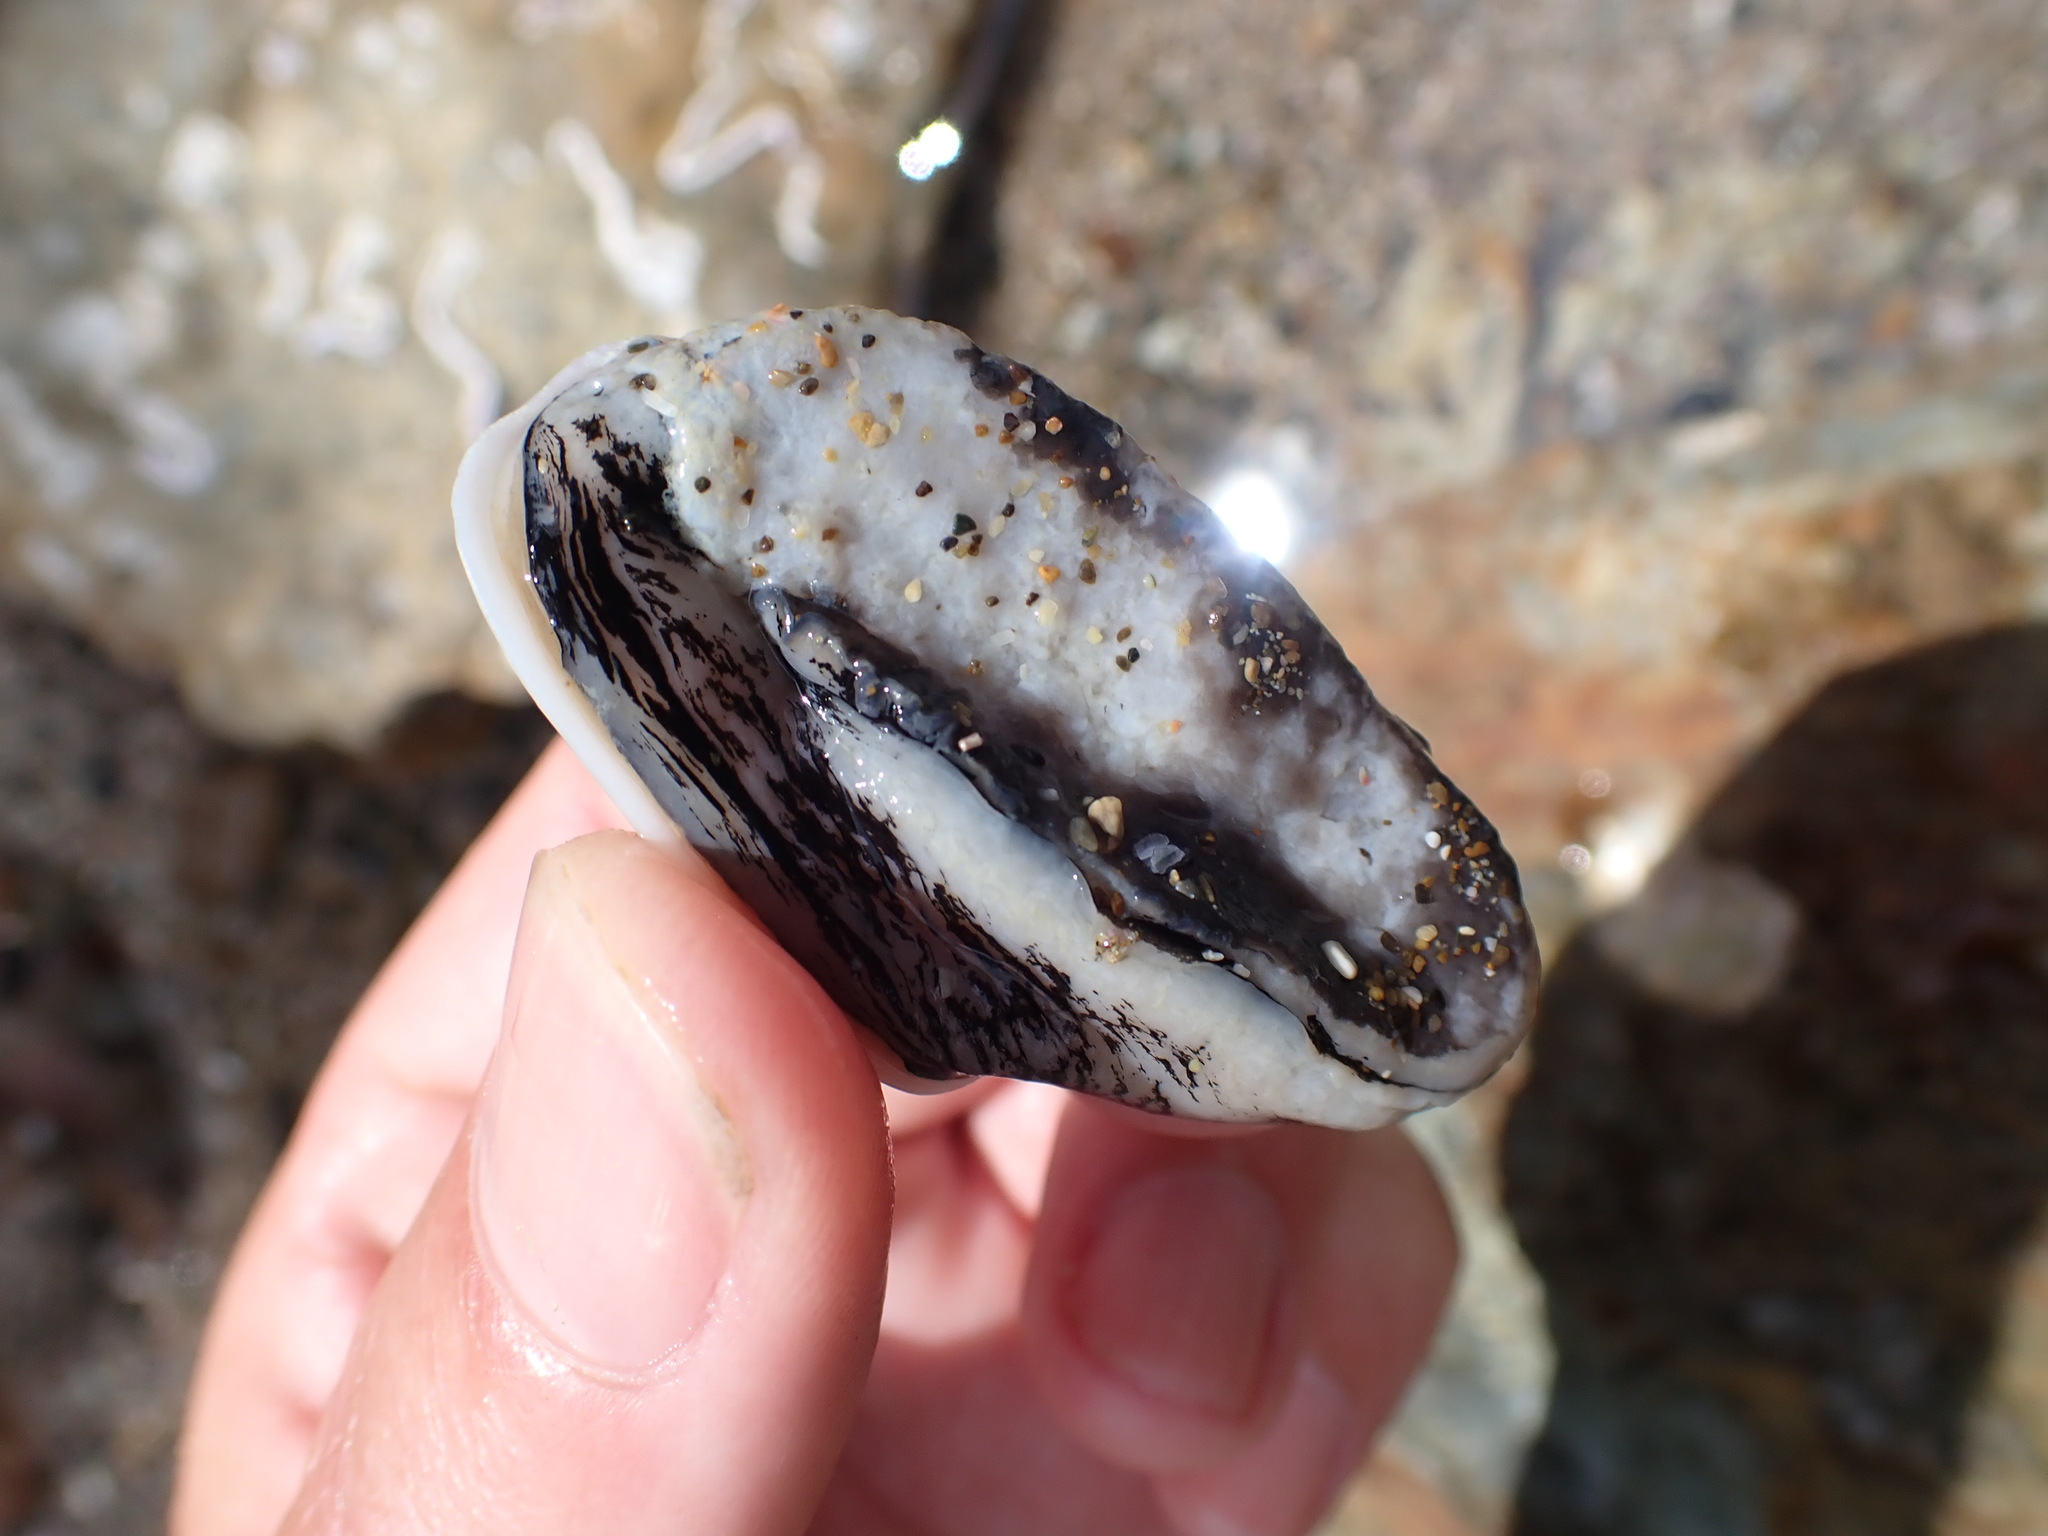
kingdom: Animalia
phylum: Mollusca
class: Gastropoda
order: Lepetellida
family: Fissurellidae
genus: Scutus
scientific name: Scutus breviculus
